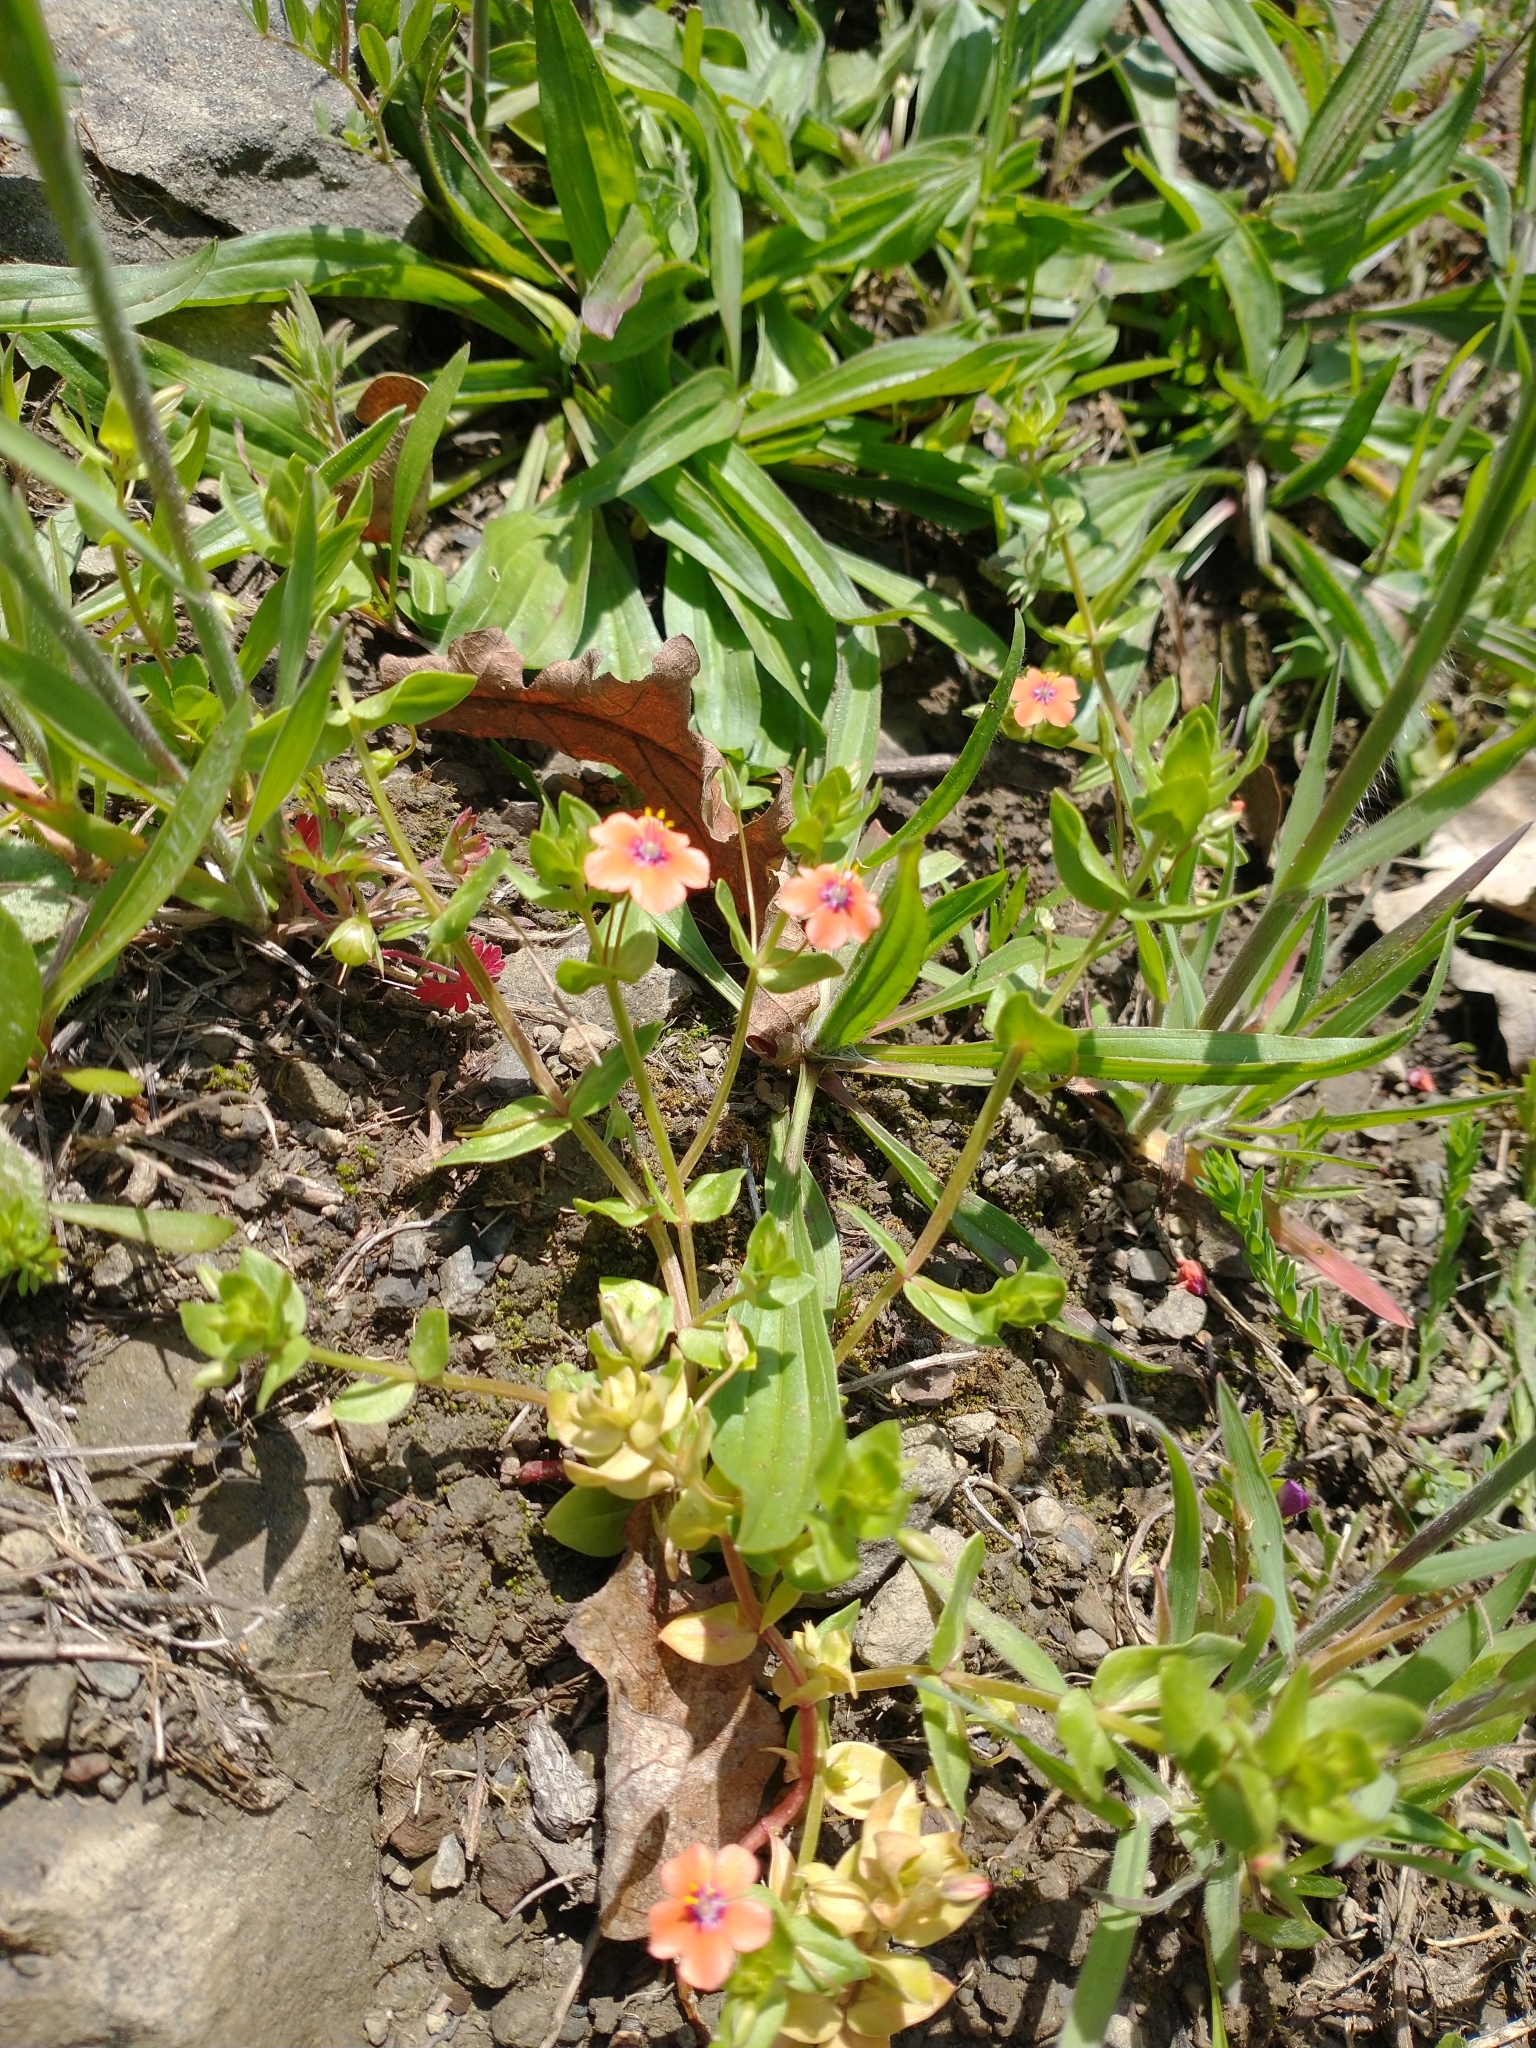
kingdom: Plantae
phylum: Tracheophyta
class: Magnoliopsida
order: Ericales
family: Primulaceae
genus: Lysimachia
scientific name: Lysimachia arvensis
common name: Scarlet pimpernel
